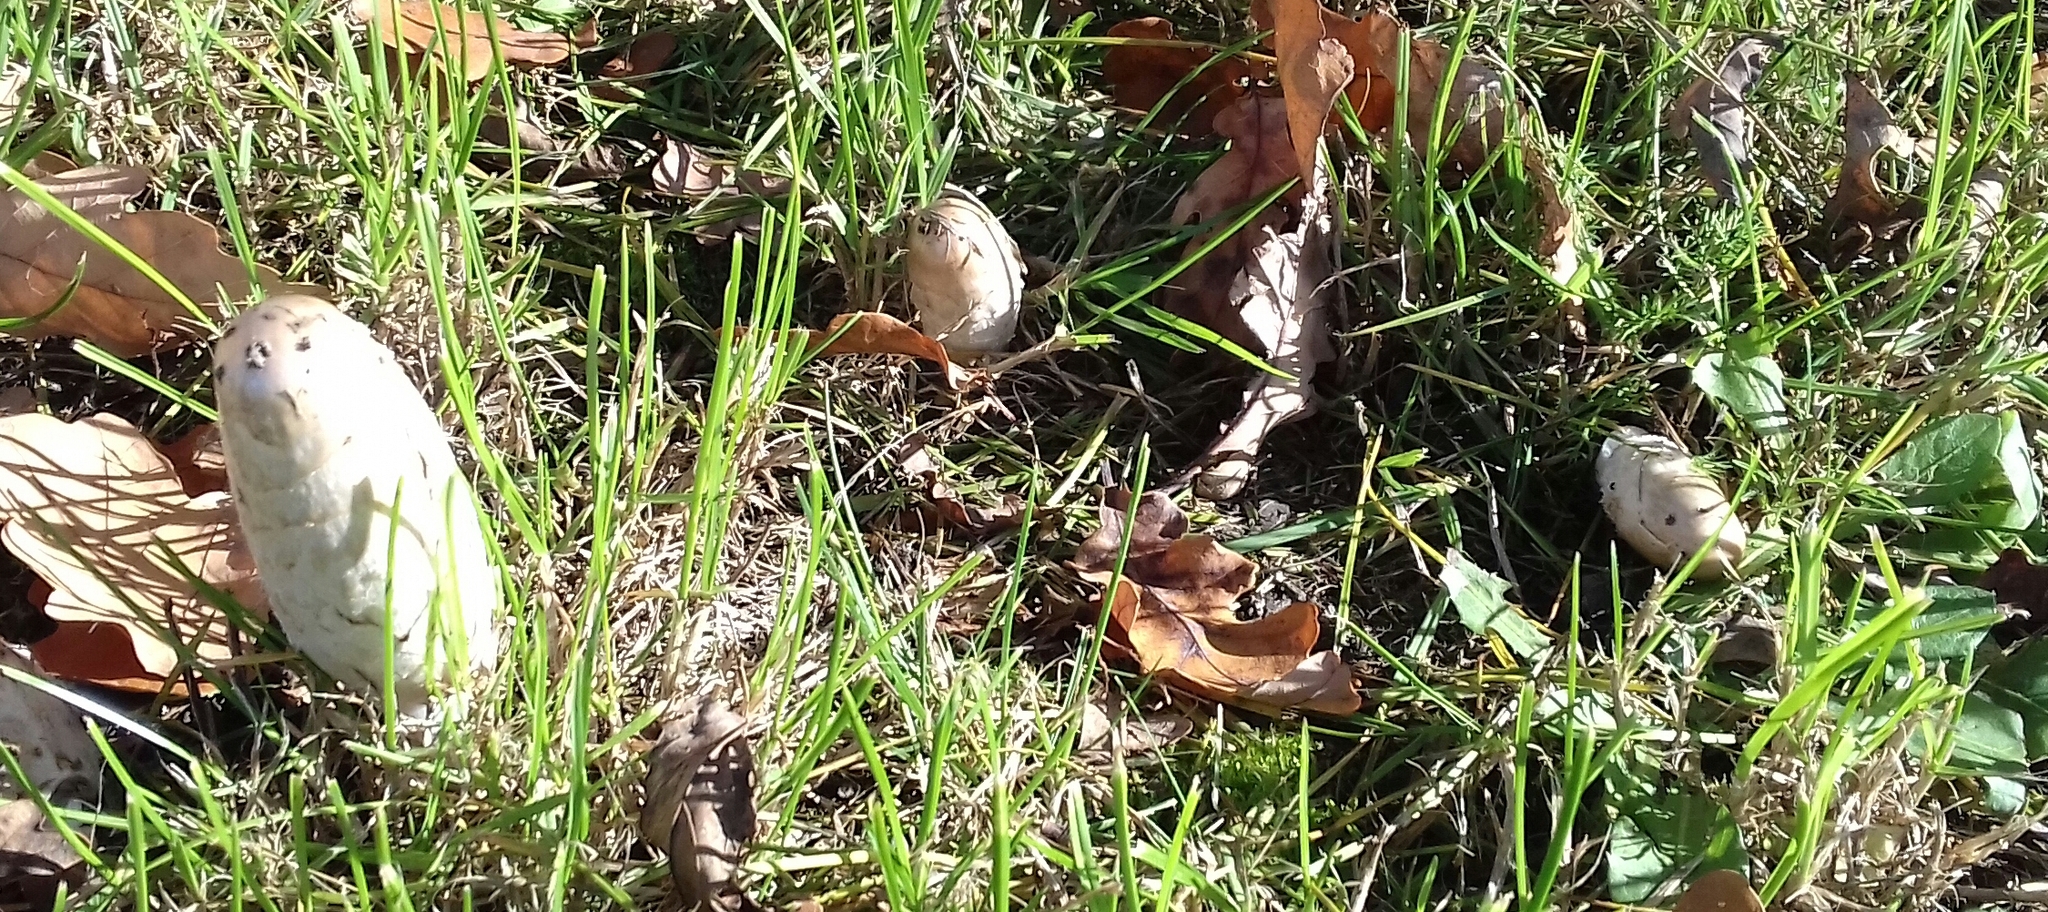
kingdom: Fungi
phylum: Basidiomycota
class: Agaricomycetes
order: Agaricales
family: Agaricaceae
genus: Coprinus
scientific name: Coprinus comatus
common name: Lawyer's wig
